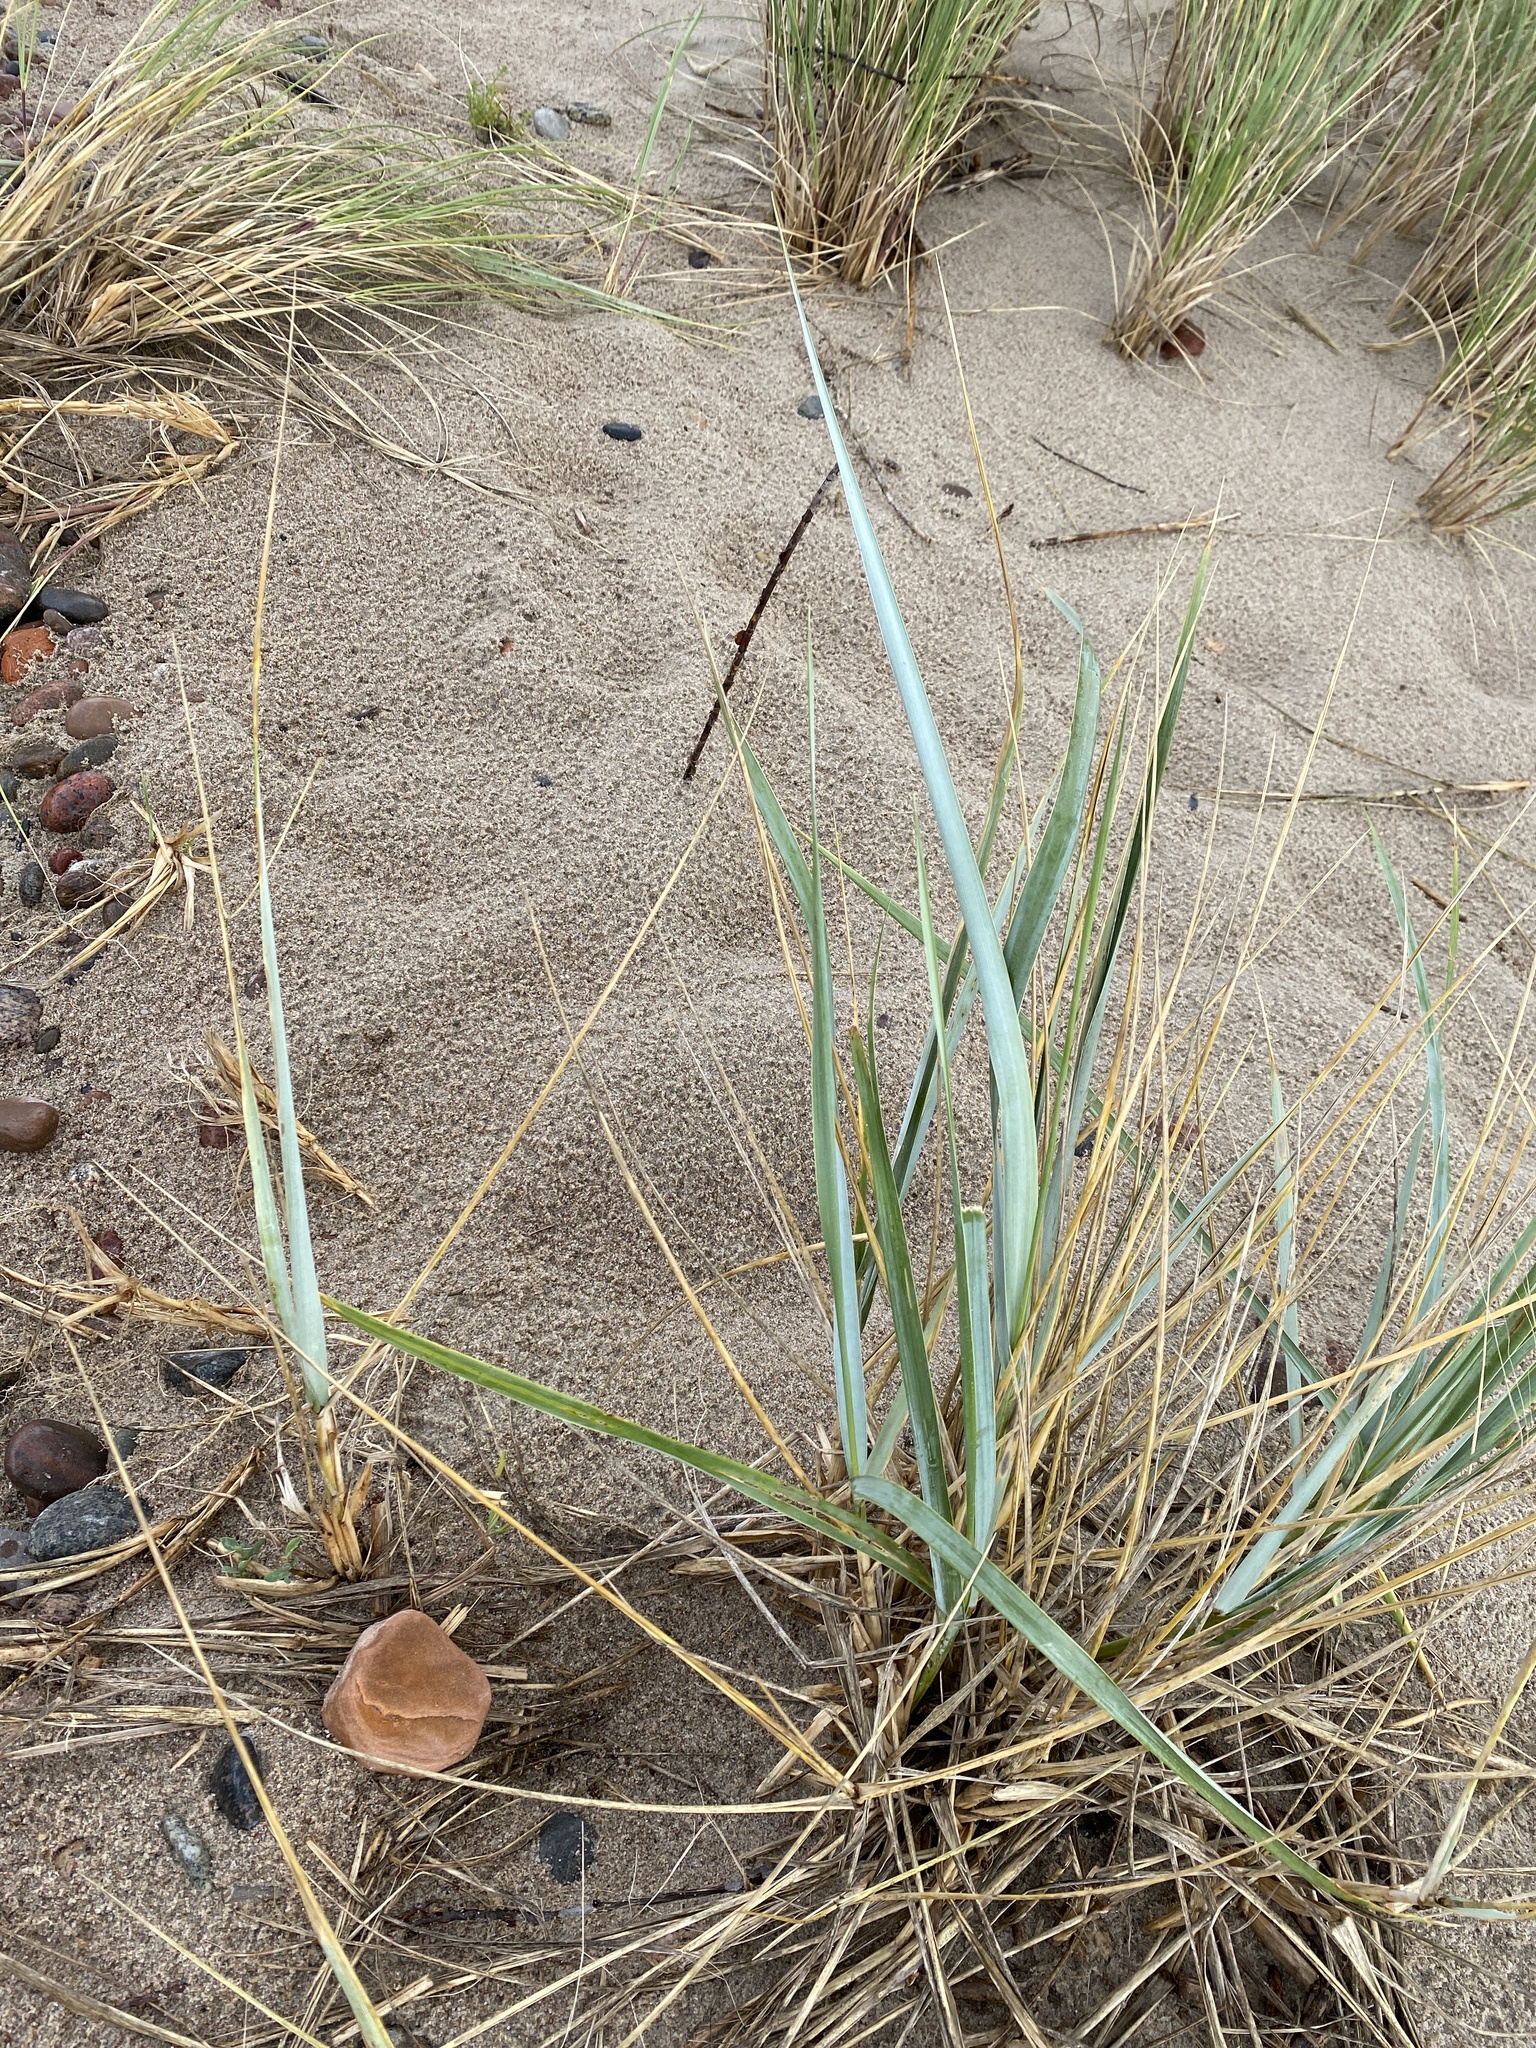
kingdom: Plantae
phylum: Tracheophyta
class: Liliopsida
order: Poales
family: Poaceae
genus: Leymus
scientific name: Leymus arenarius
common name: Lyme-grass
